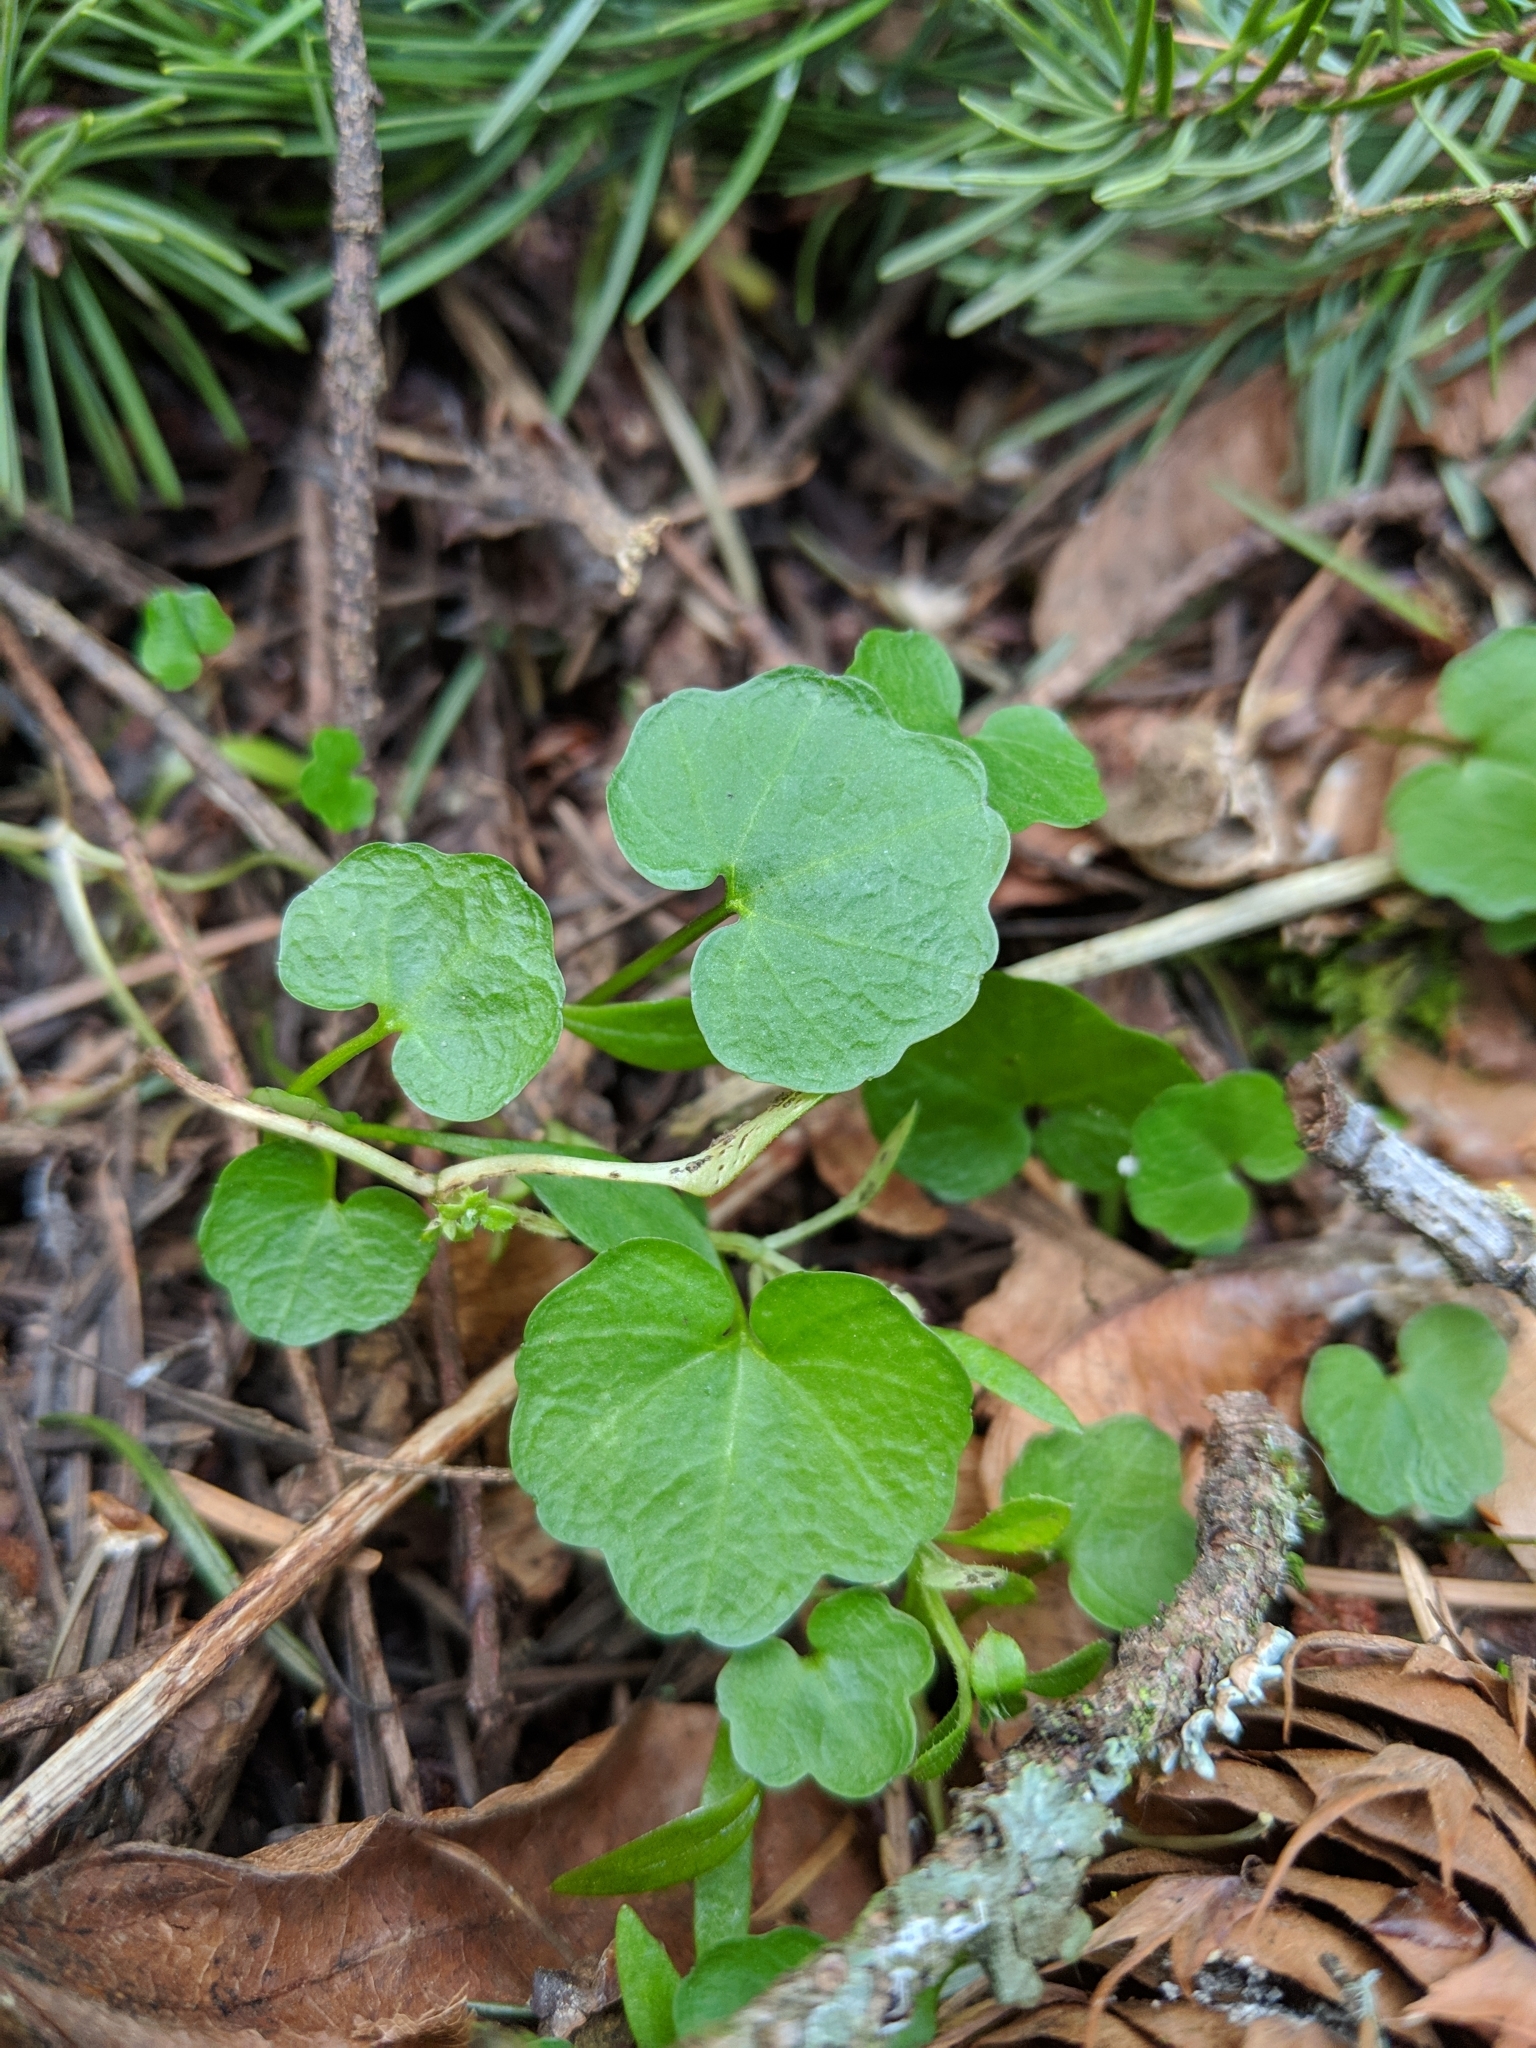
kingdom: Plantae
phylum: Tracheophyta
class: Magnoliopsida
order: Brassicales
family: Brassicaceae
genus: Cardamine
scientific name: Cardamine nuttallii
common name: Nuttall's toothwort
